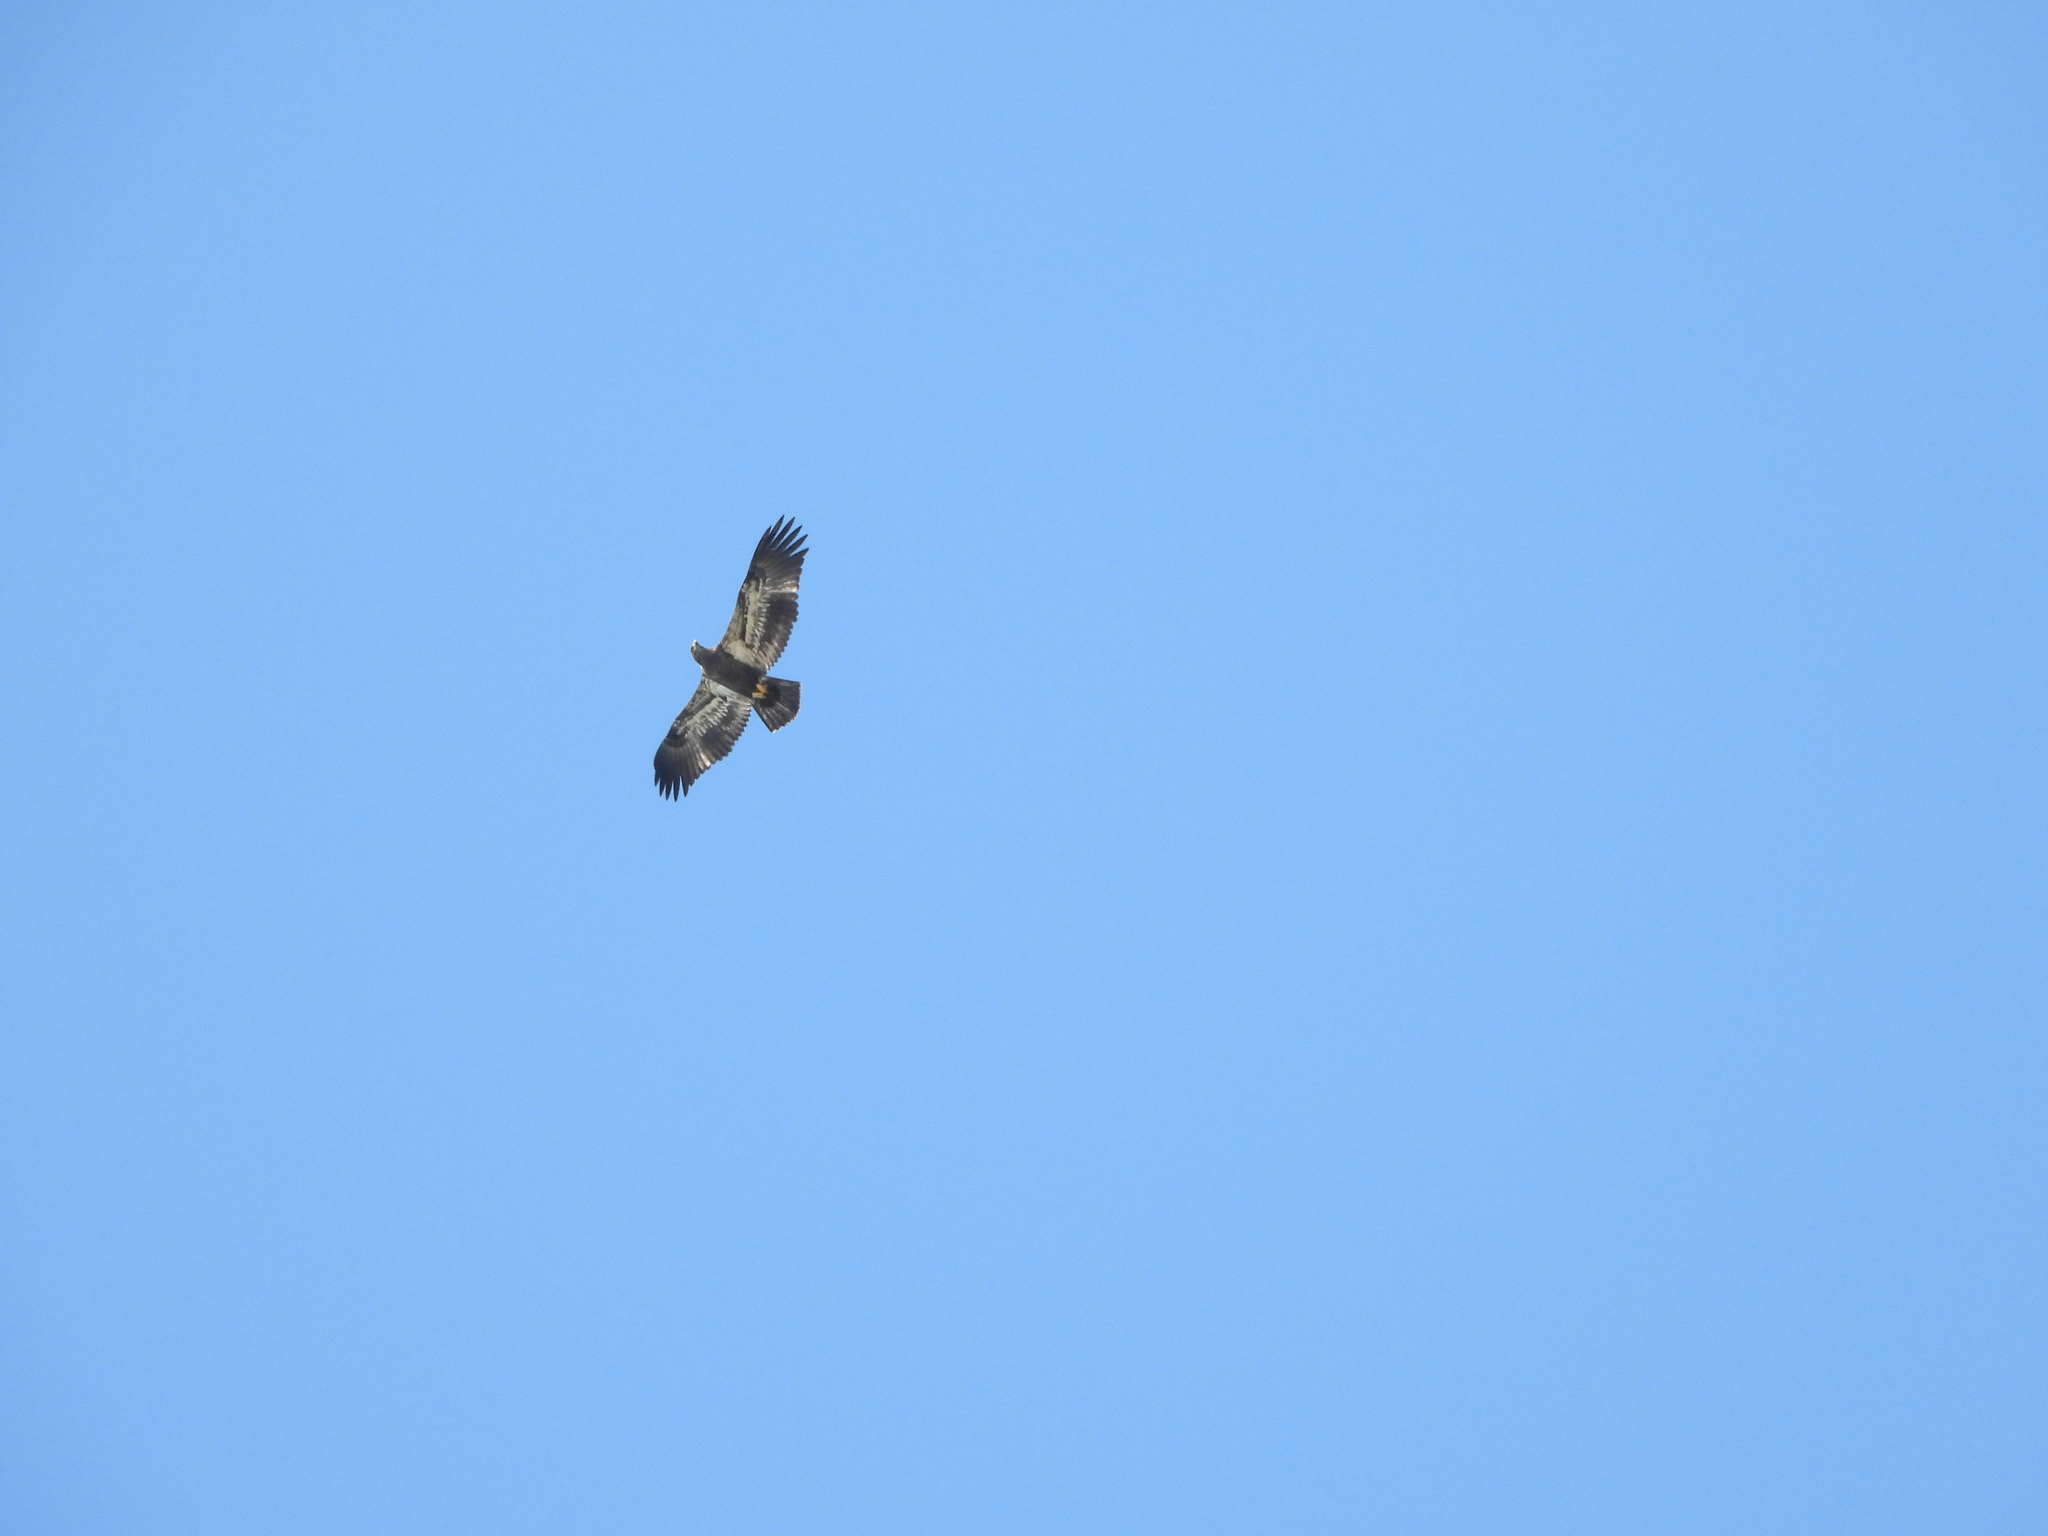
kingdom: Animalia
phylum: Chordata
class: Aves
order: Accipitriformes
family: Accipitridae
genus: Haliaeetus
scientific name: Haliaeetus leucocephalus
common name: Bald eagle
